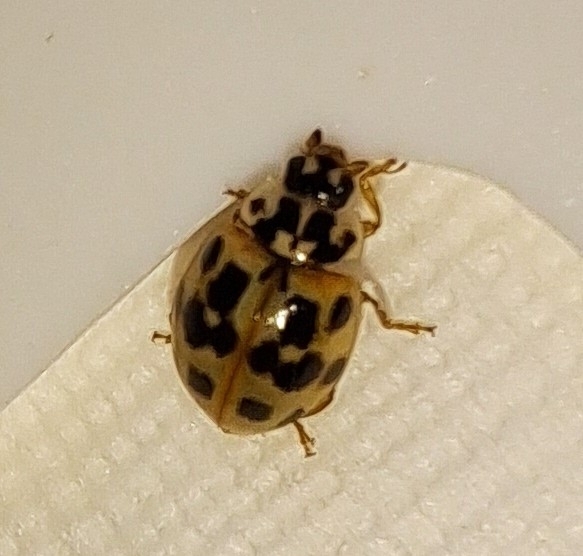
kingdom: Animalia
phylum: Arthropoda
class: Insecta
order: Coleoptera
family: Coccinellidae
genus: Adalia
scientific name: Adalia bipunctata
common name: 2-spot ladybird
